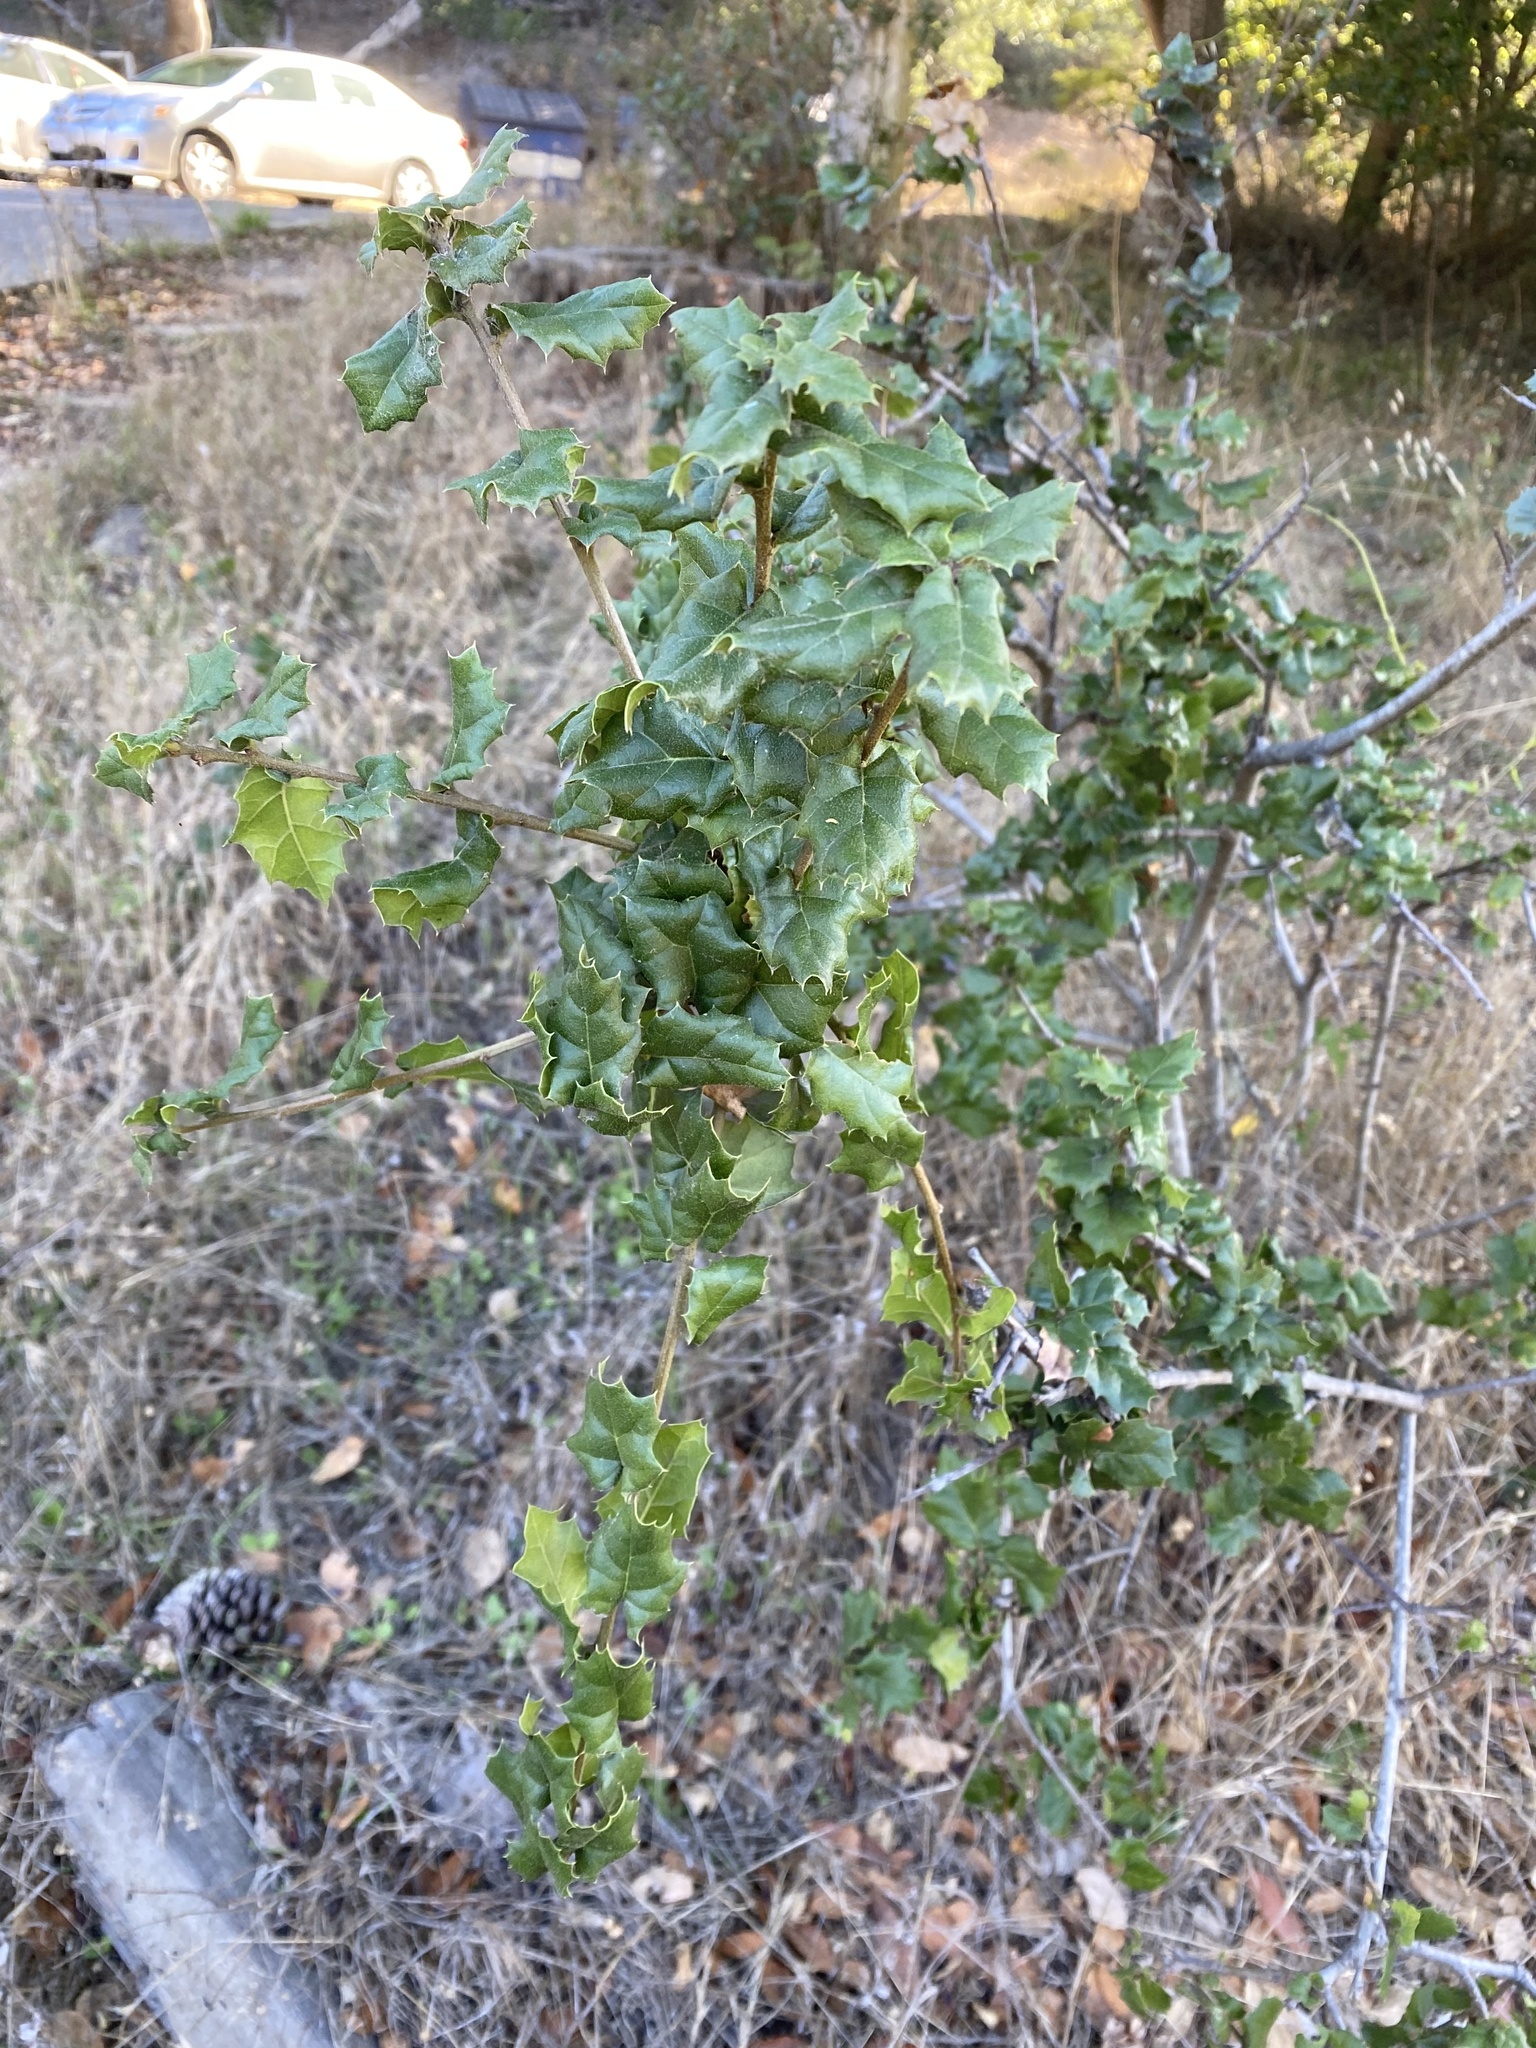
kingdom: Plantae
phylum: Tracheophyta
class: Magnoliopsida
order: Fagales
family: Fagaceae
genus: Quercus
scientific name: Quercus agrifolia
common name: California live oak
